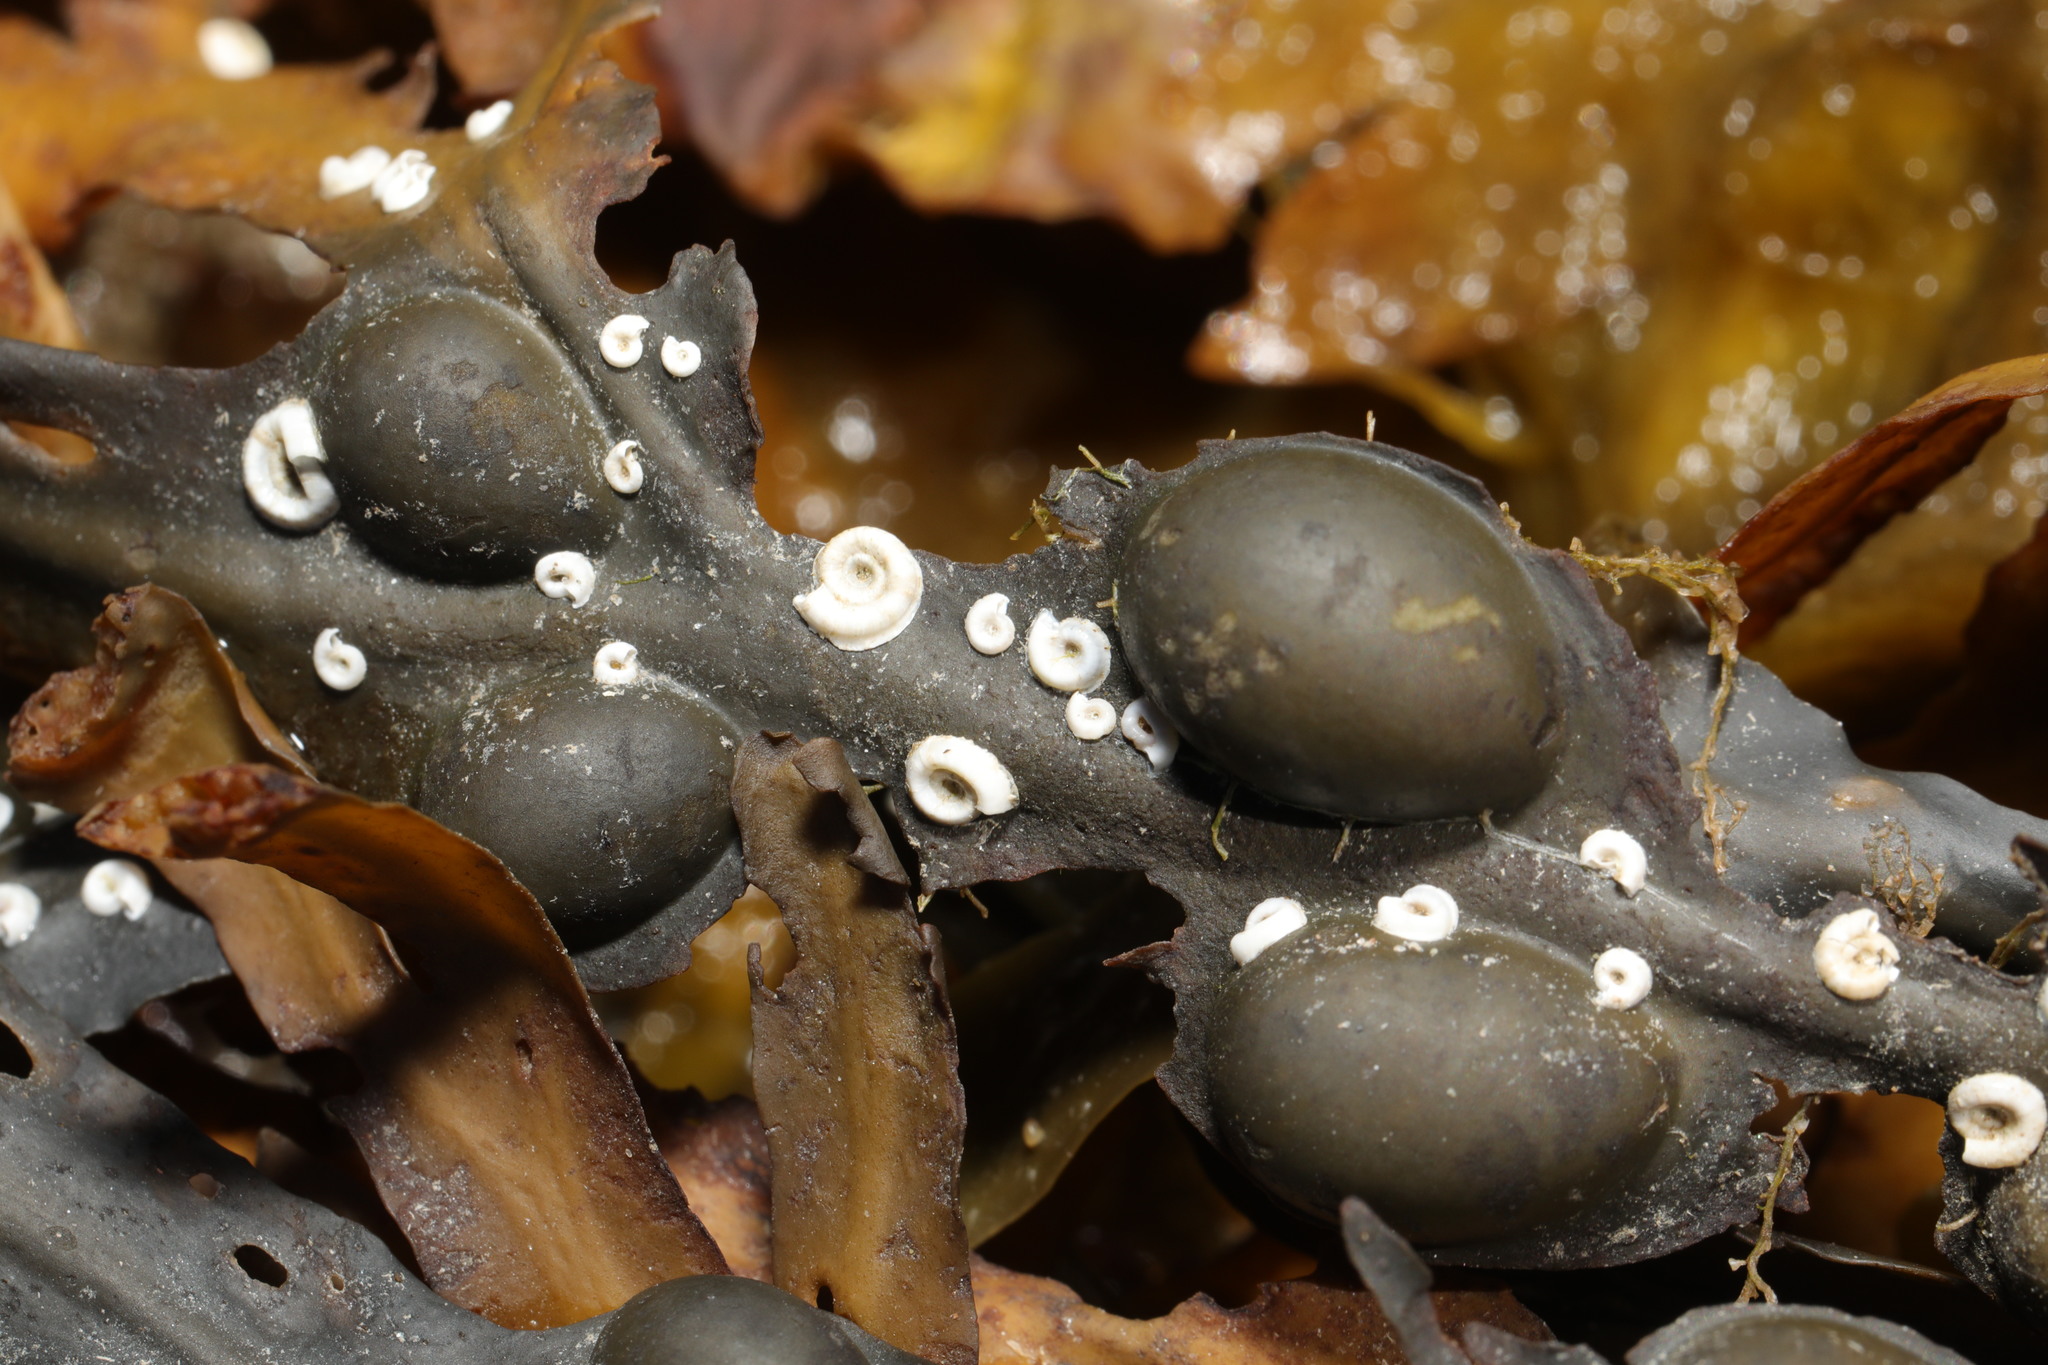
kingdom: Animalia
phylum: Annelida
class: Polychaeta
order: Sabellida
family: Serpulidae
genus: Spirorbis
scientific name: Spirorbis spirorbis
